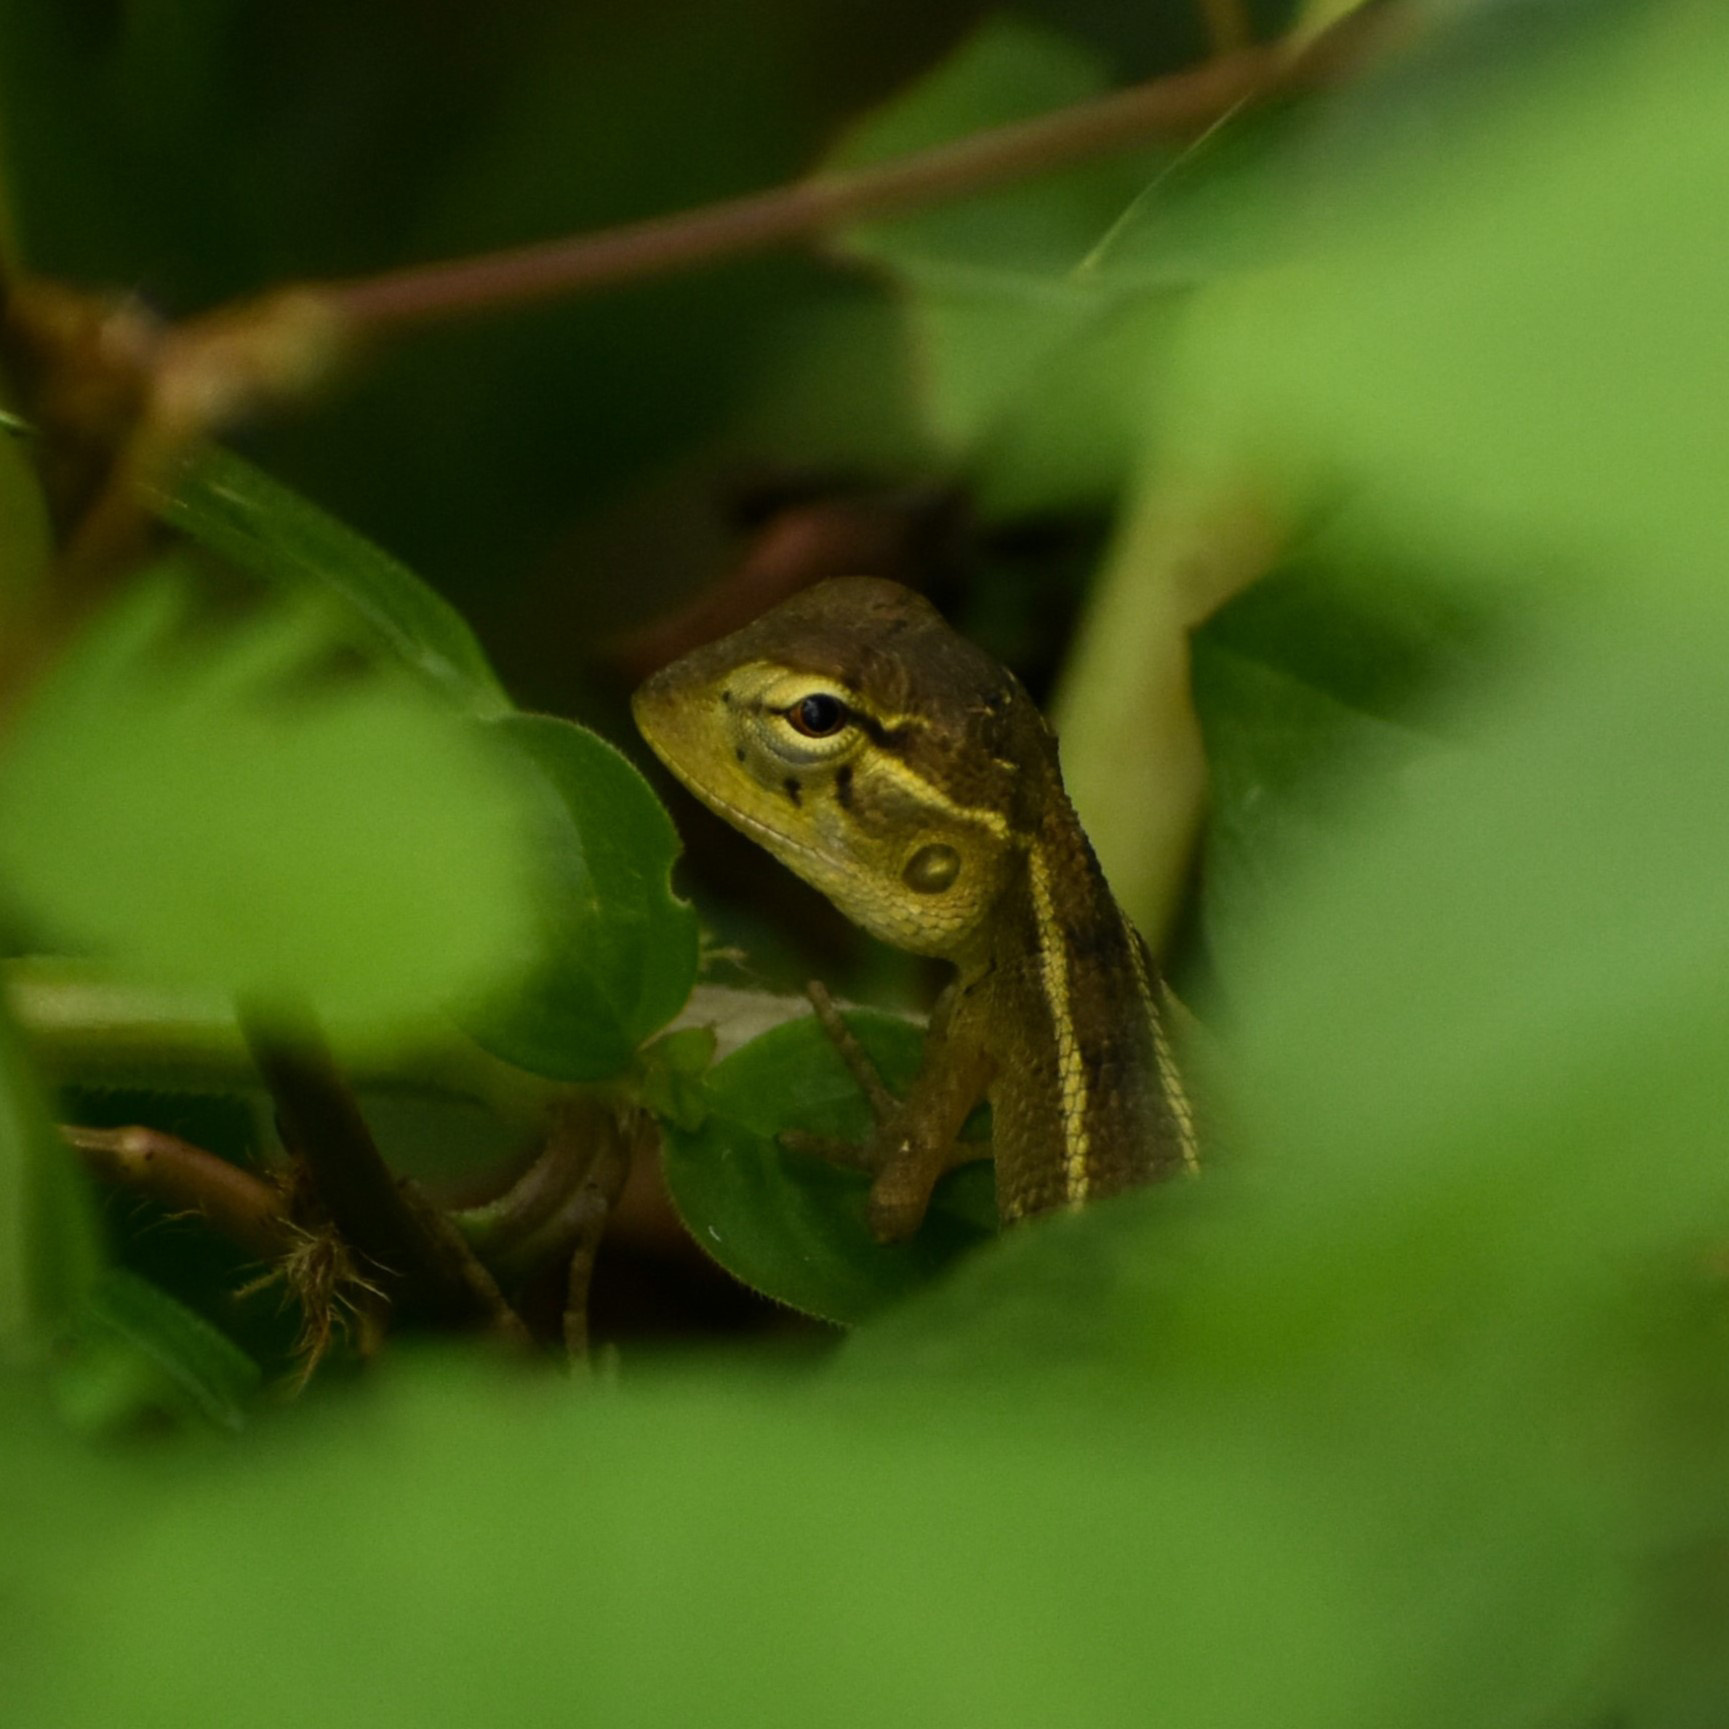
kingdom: Animalia
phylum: Chordata
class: Squamata
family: Agamidae
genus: Calotes
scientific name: Calotes versicolor
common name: Oriental garden lizard
